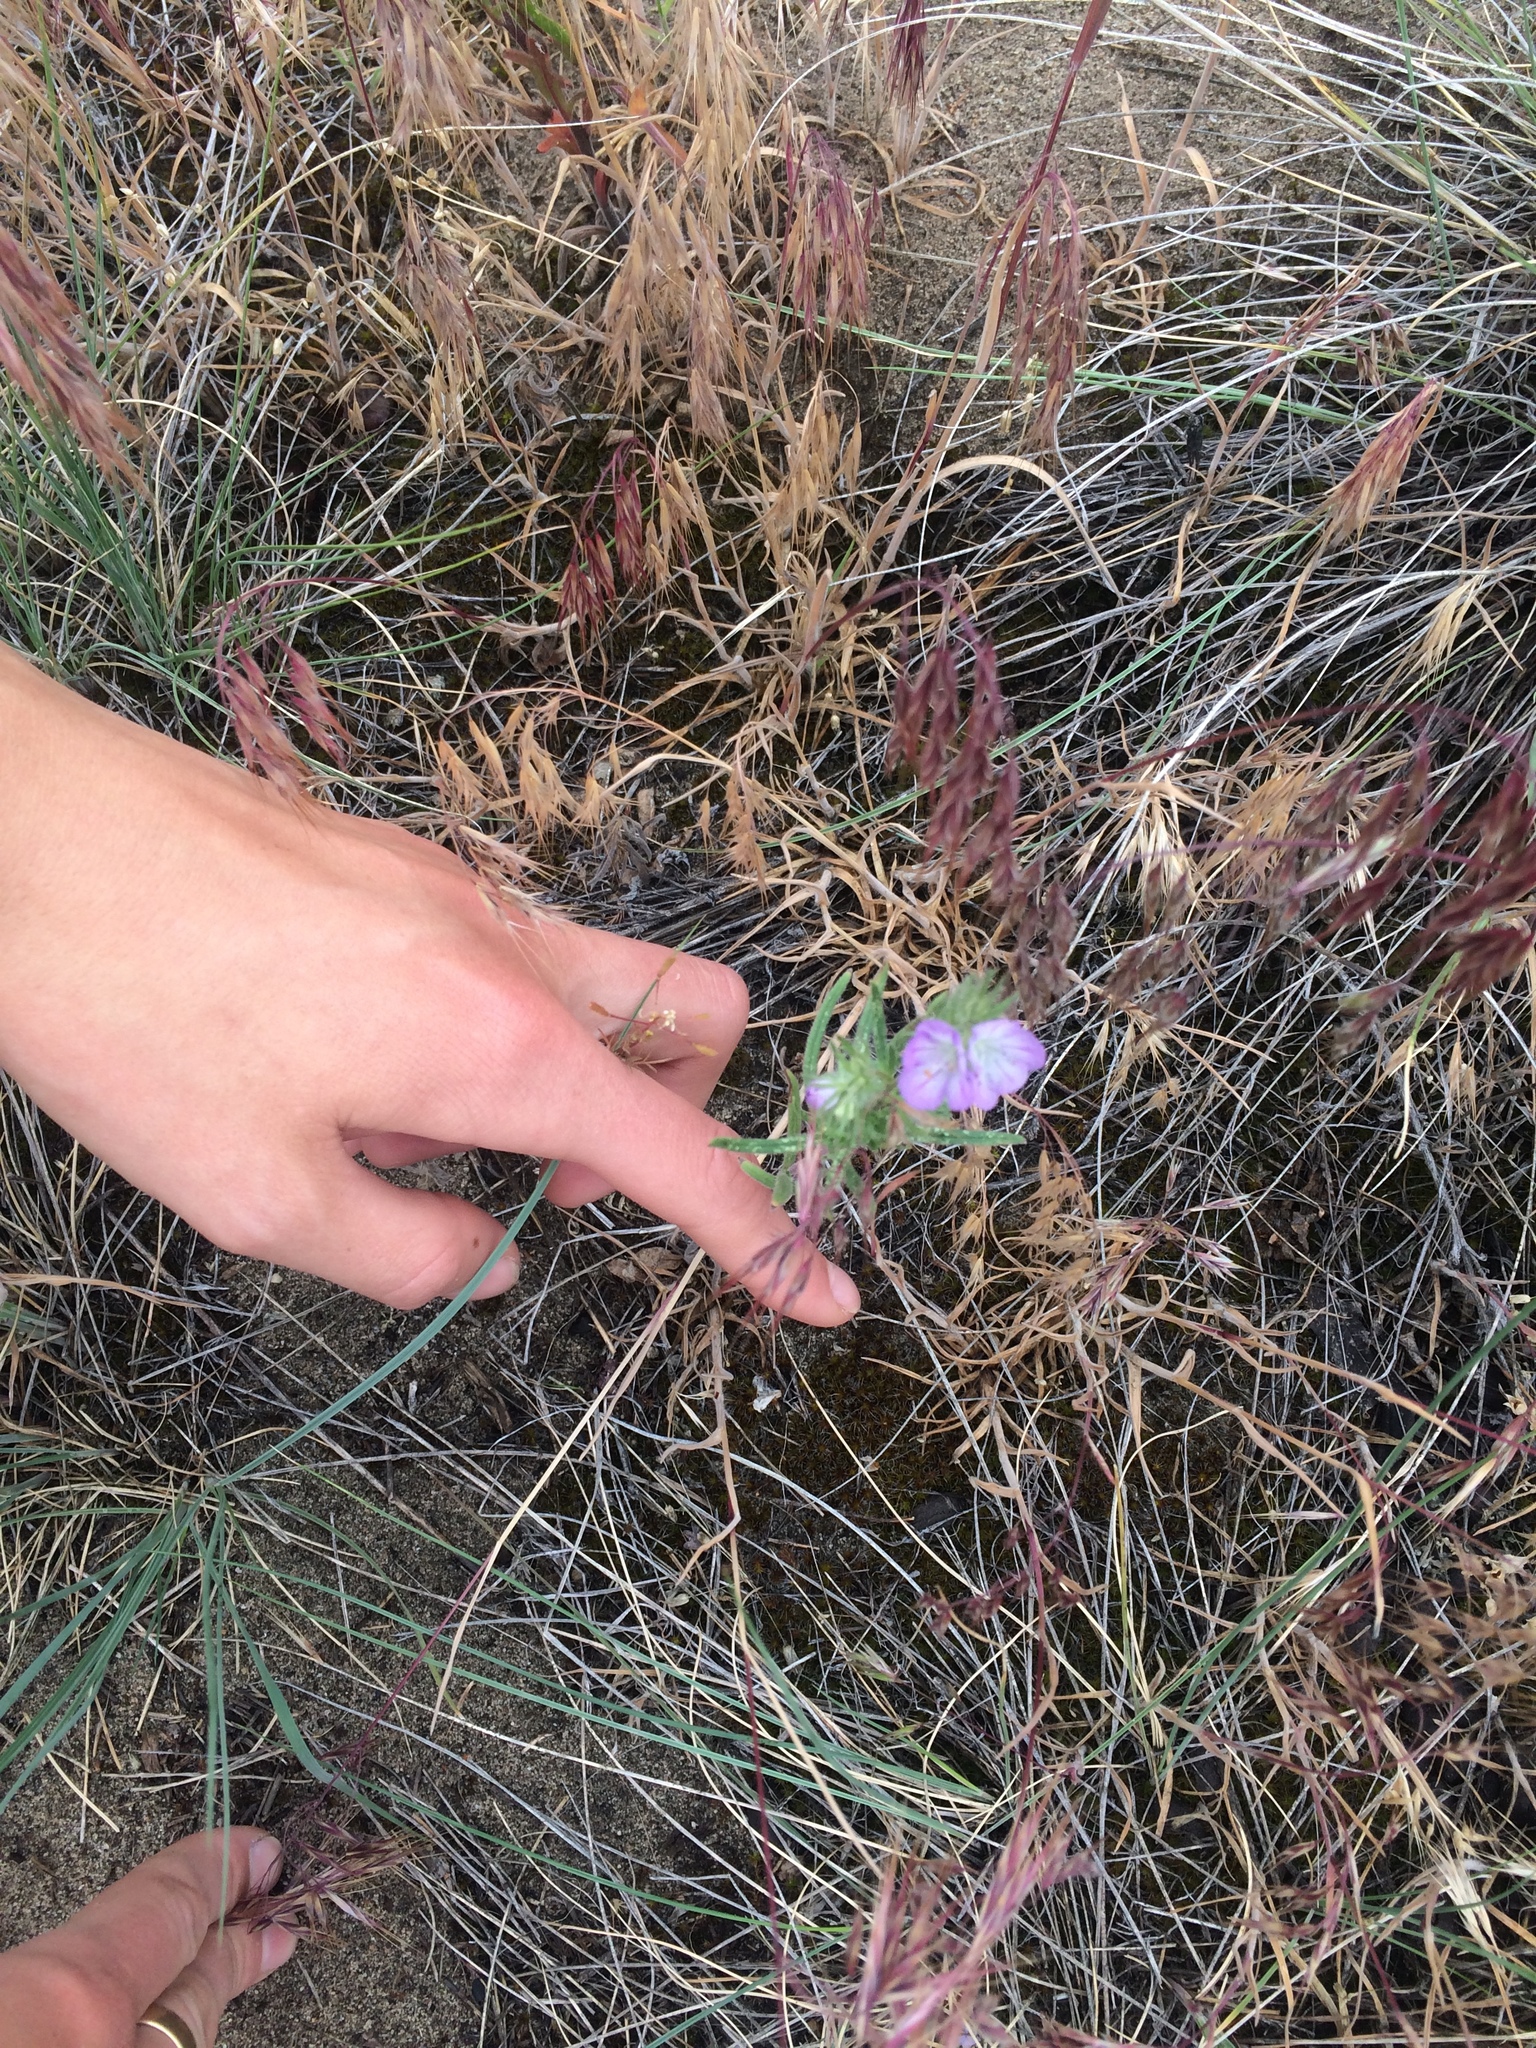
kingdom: Plantae
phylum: Tracheophyta
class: Magnoliopsida
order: Boraginales
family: Hydrophyllaceae
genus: Phacelia
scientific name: Phacelia linearis
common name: Linear-leaved phacelia
